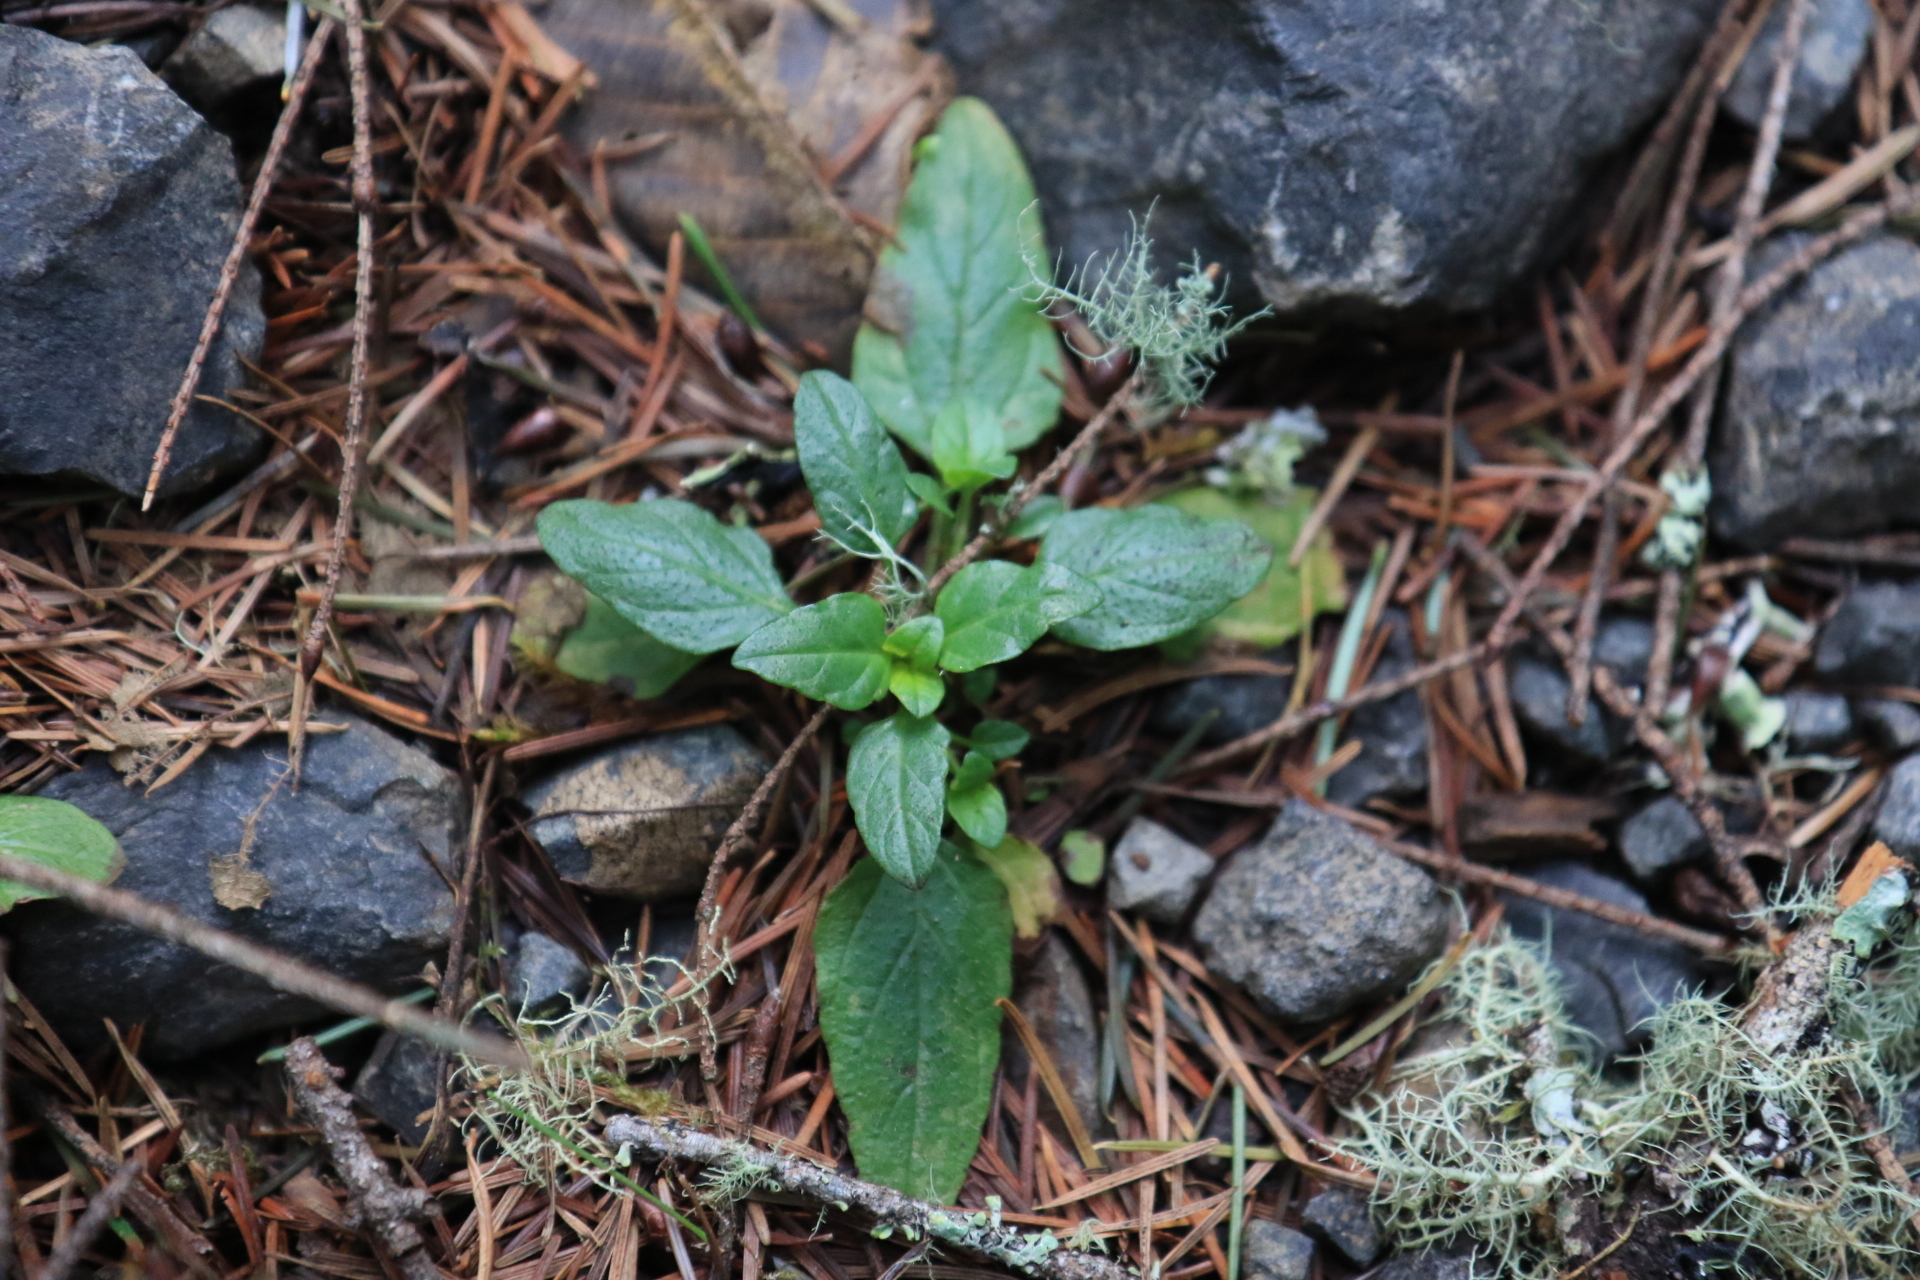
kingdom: Plantae
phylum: Tracheophyta
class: Magnoliopsida
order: Lamiales
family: Lamiaceae
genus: Prunella
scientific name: Prunella vulgaris
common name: Heal-all
